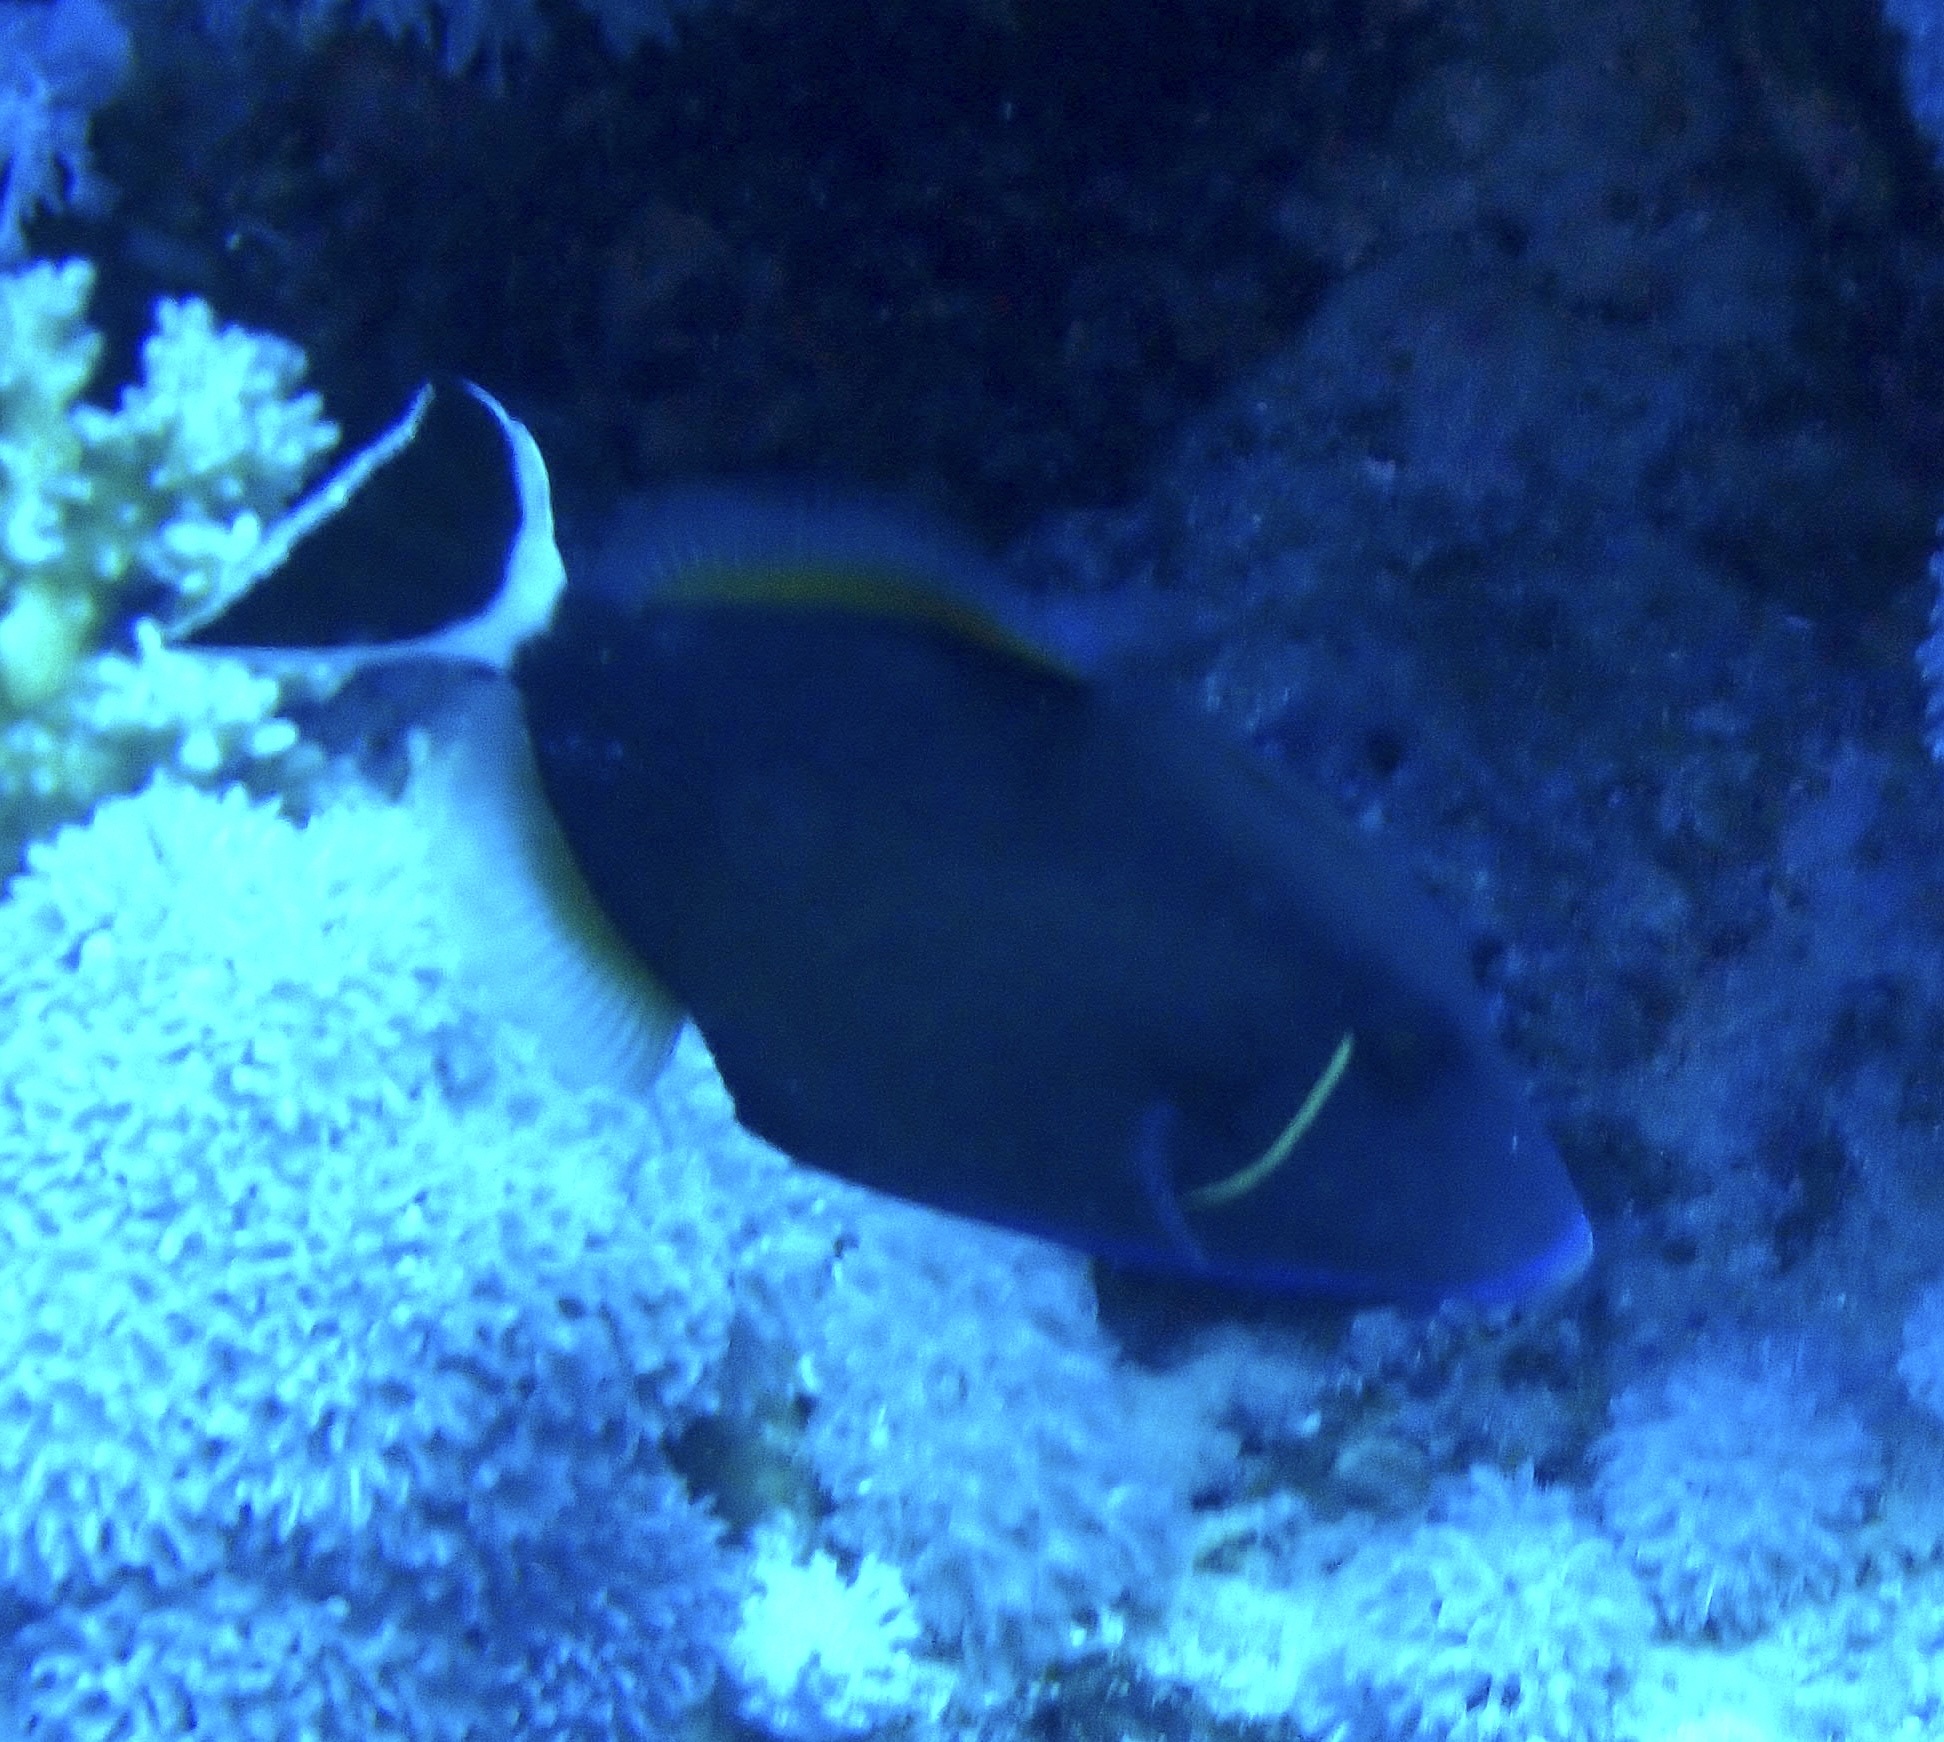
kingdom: Animalia
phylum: Chordata
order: Tetraodontiformes
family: Balistidae
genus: Sufflamen
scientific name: Sufflamen albicaudatum
